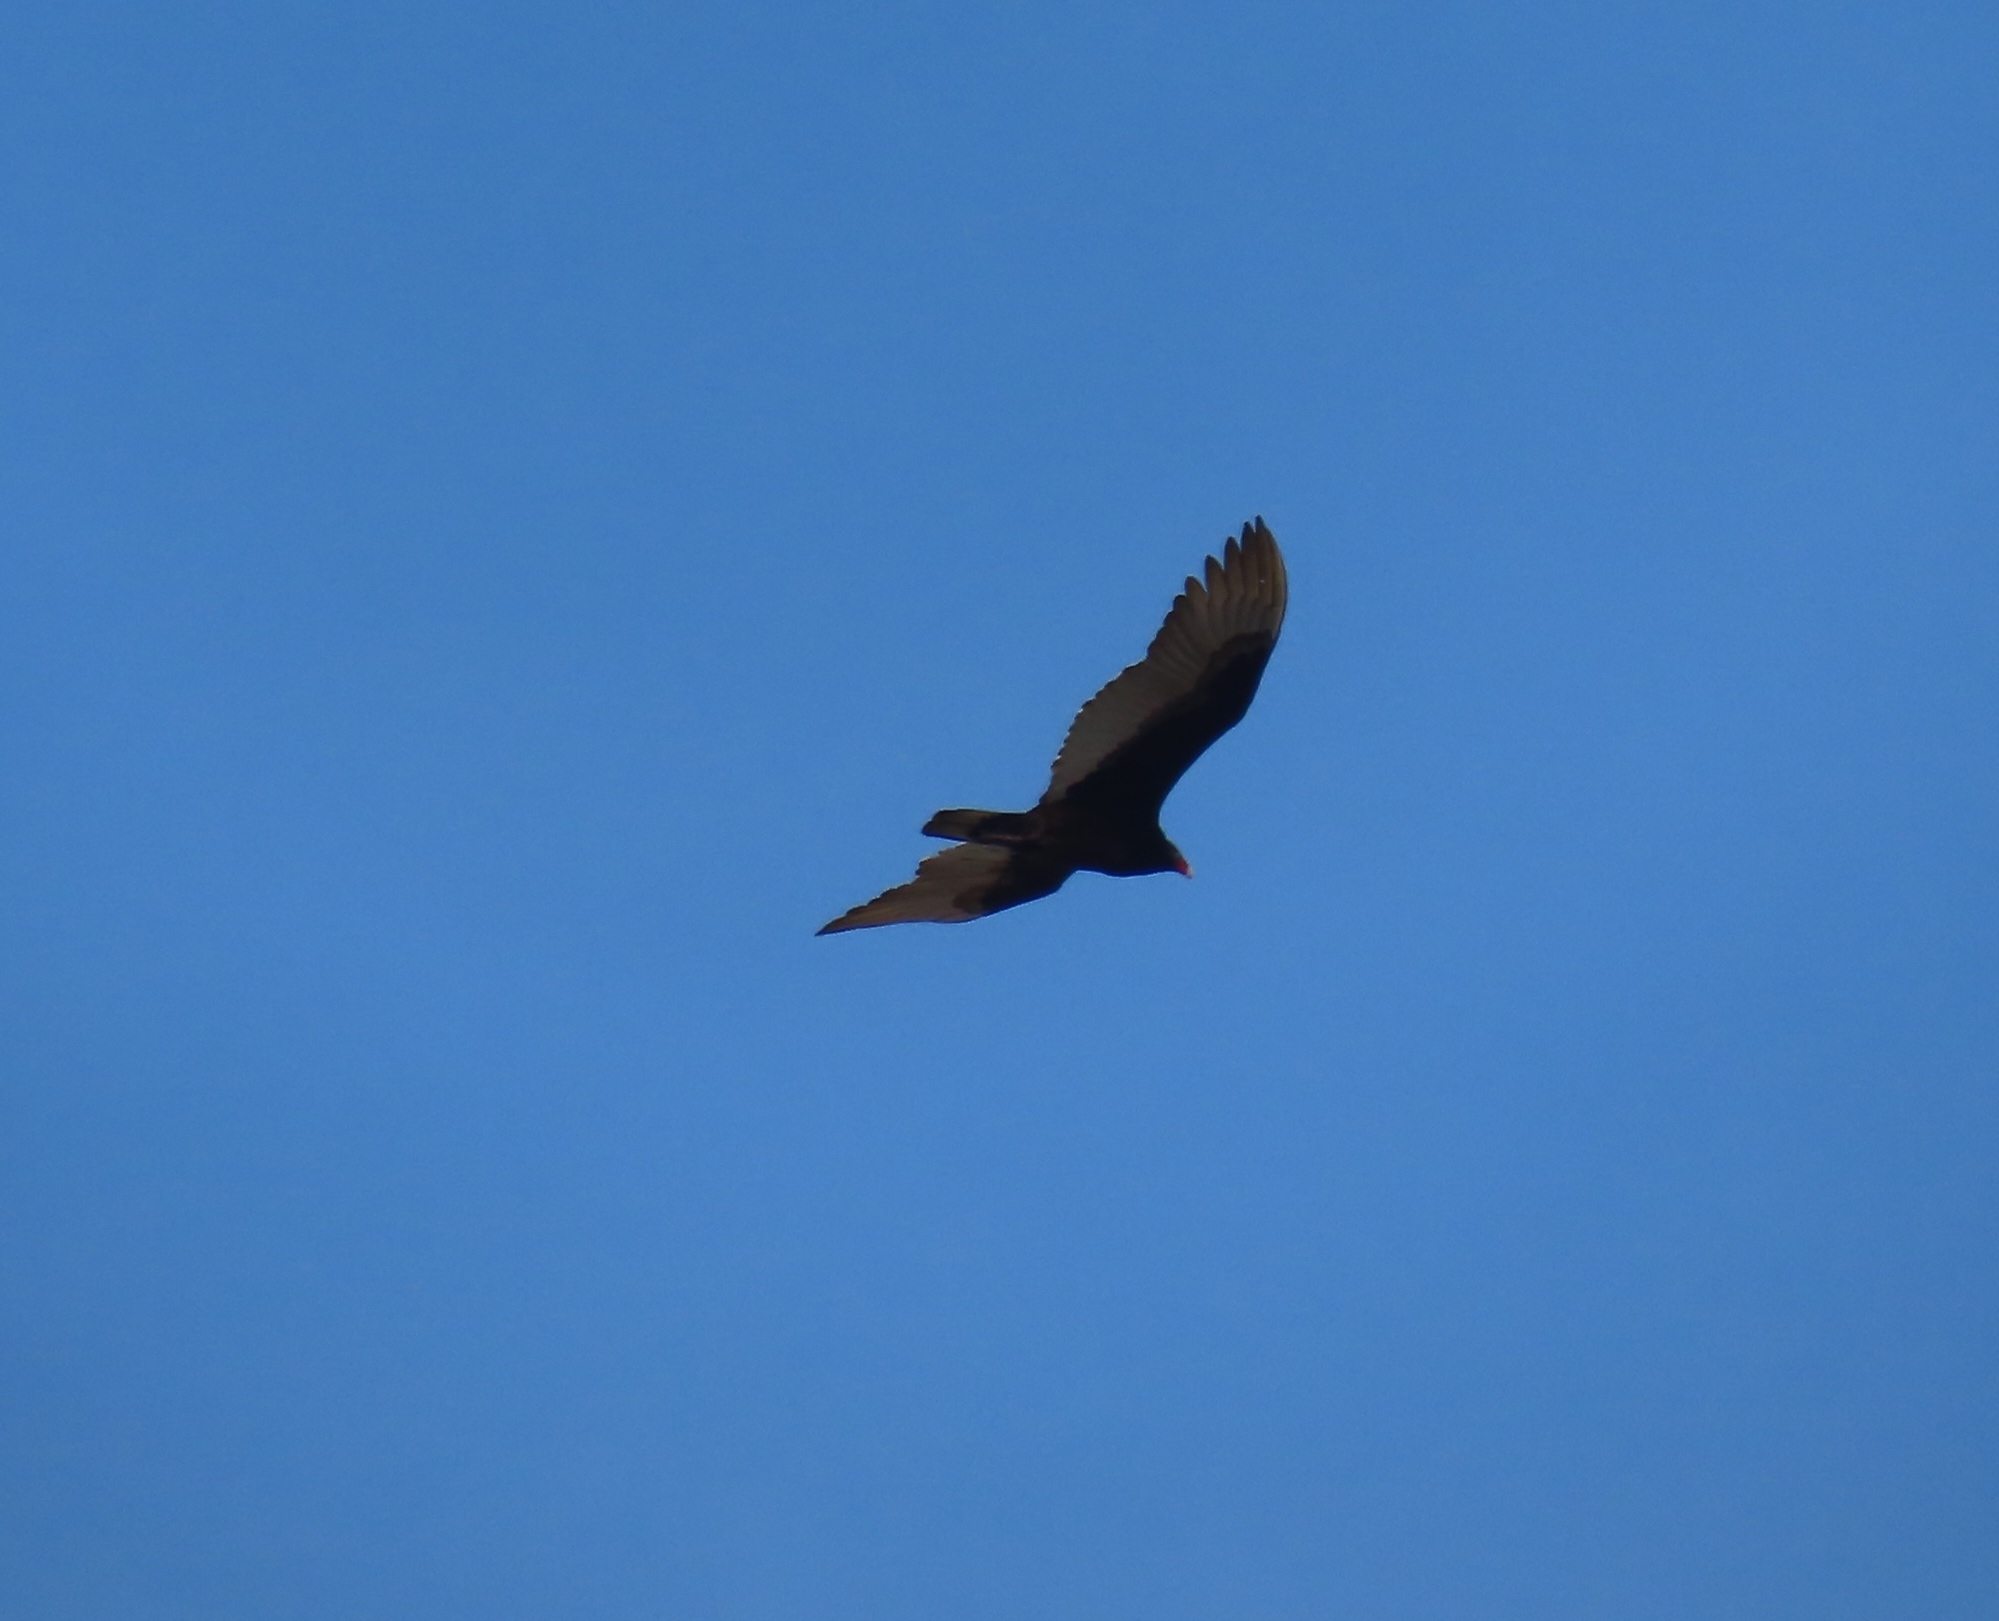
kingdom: Animalia
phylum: Chordata
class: Aves
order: Accipitriformes
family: Cathartidae
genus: Cathartes
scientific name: Cathartes aura
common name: Turkey vulture
